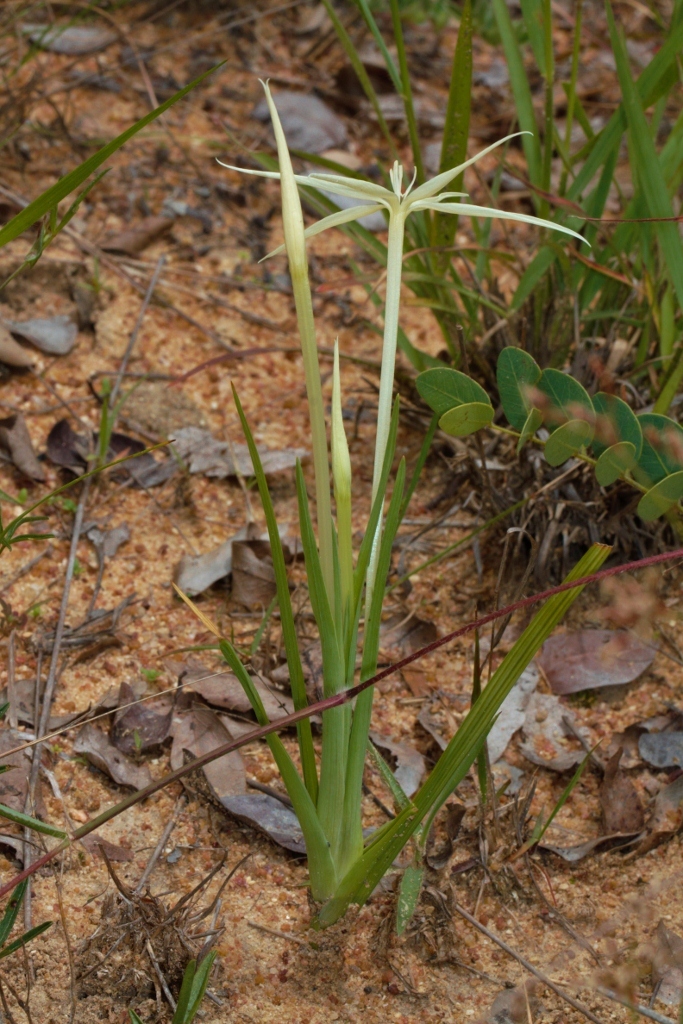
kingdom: Plantae
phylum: Tracheophyta
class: Liliopsida
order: Asparagales
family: Iridaceae
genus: Lapeirousia
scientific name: Lapeirousia odoratissima
